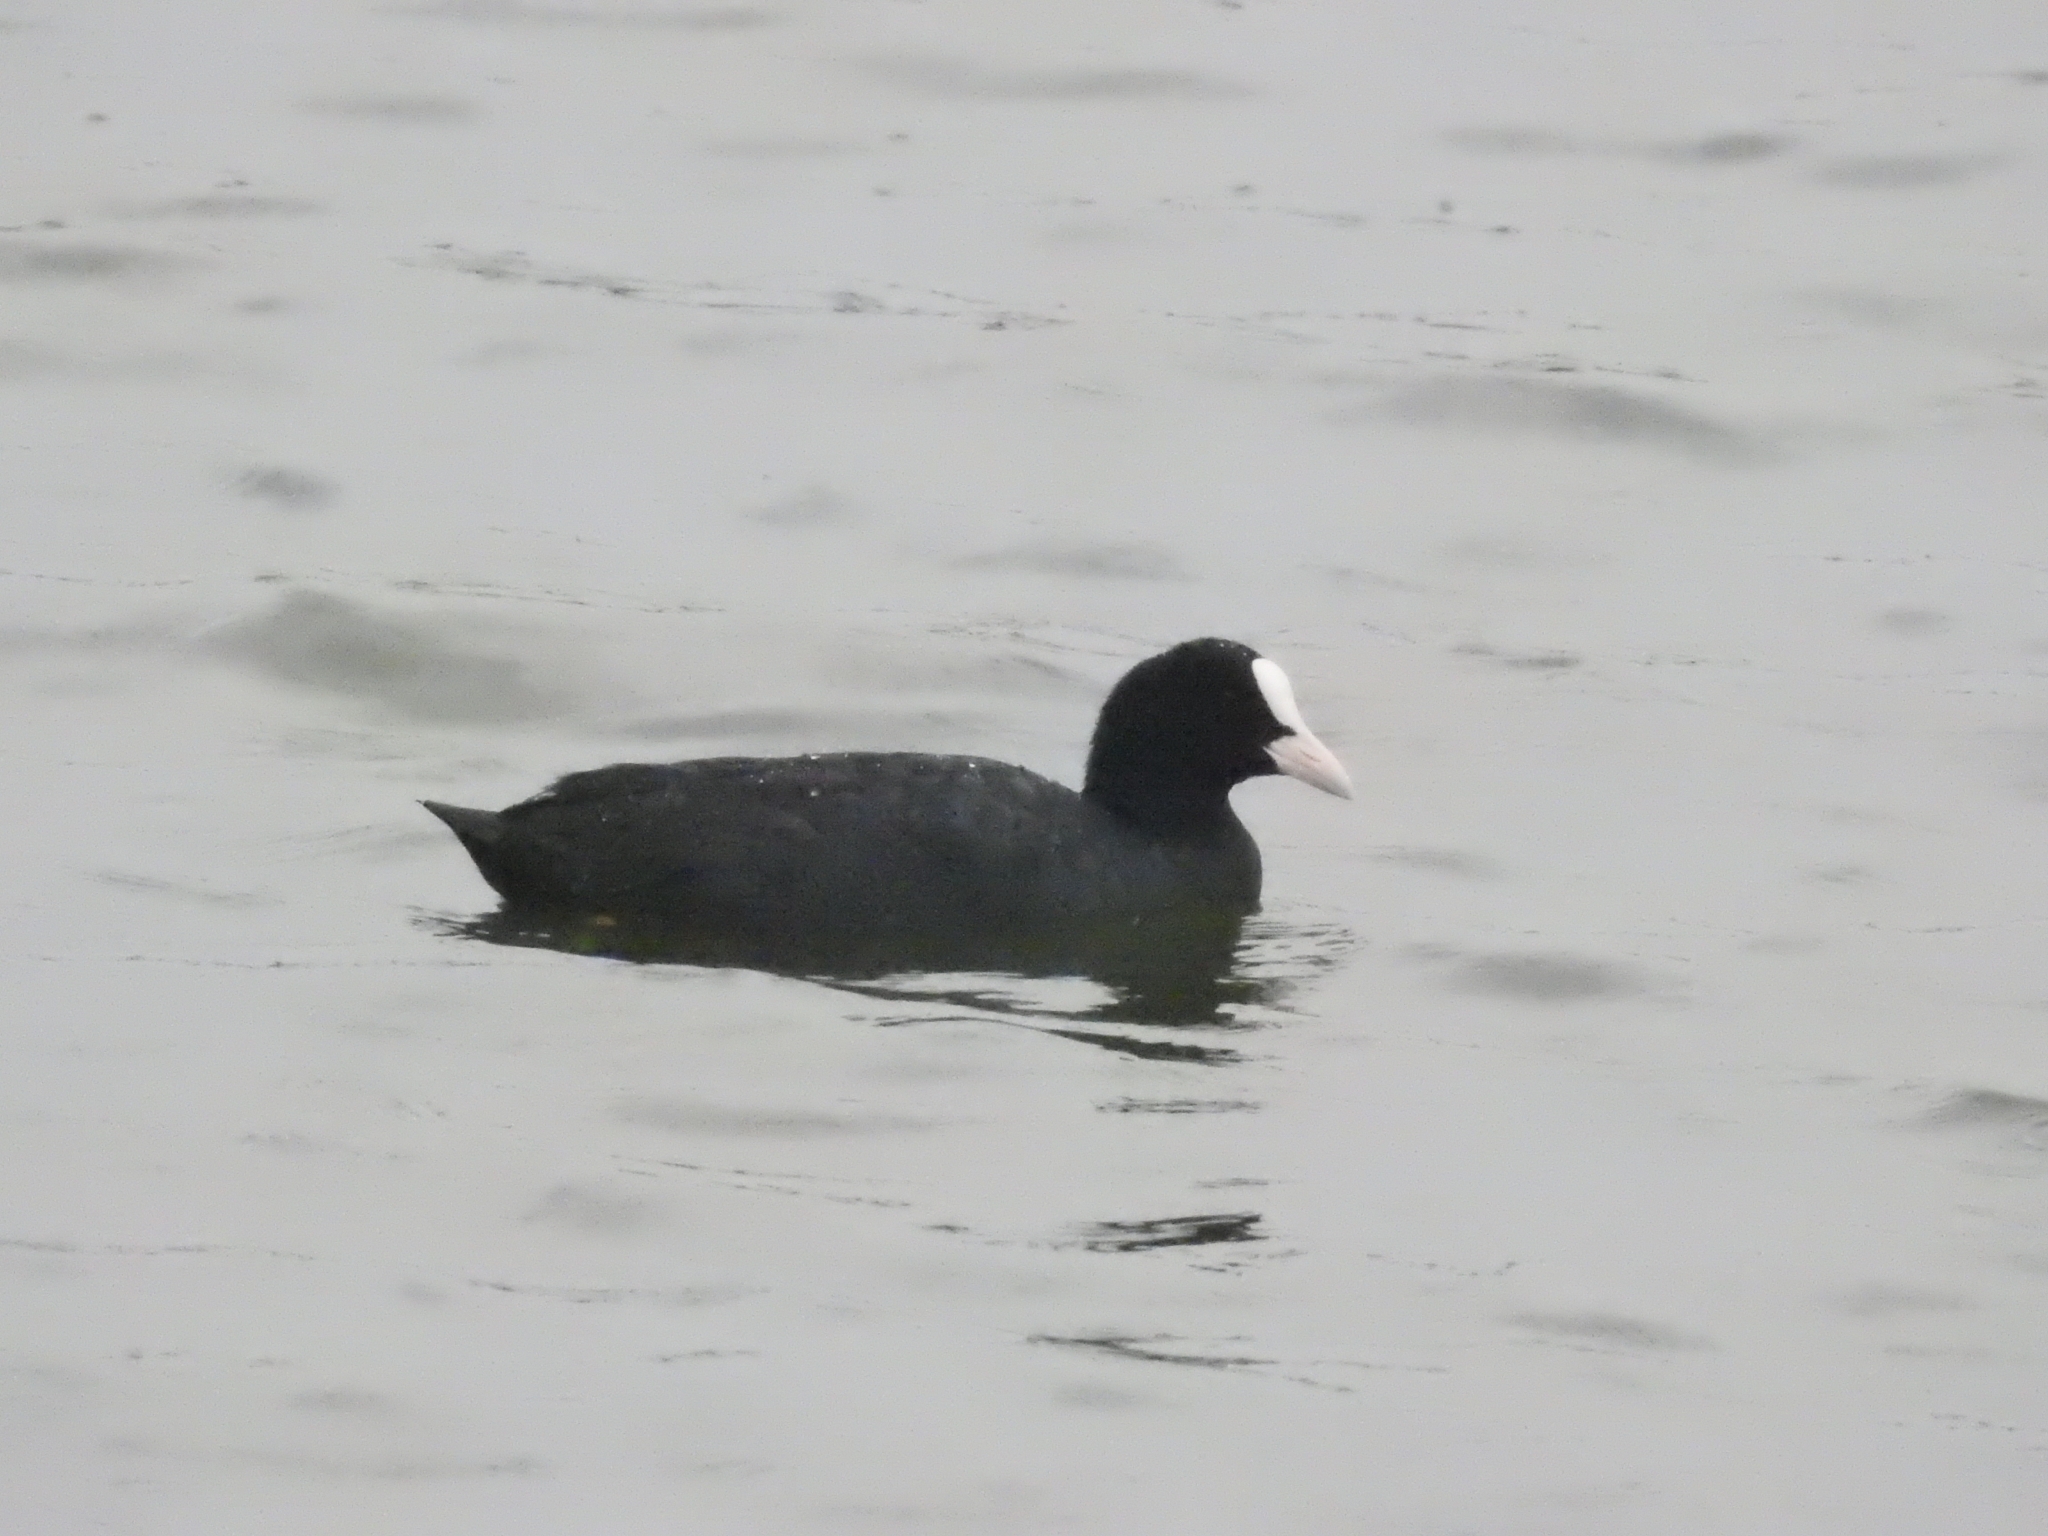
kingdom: Animalia
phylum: Chordata
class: Aves
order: Gruiformes
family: Rallidae
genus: Fulica
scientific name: Fulica atra
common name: Eurasian coot
